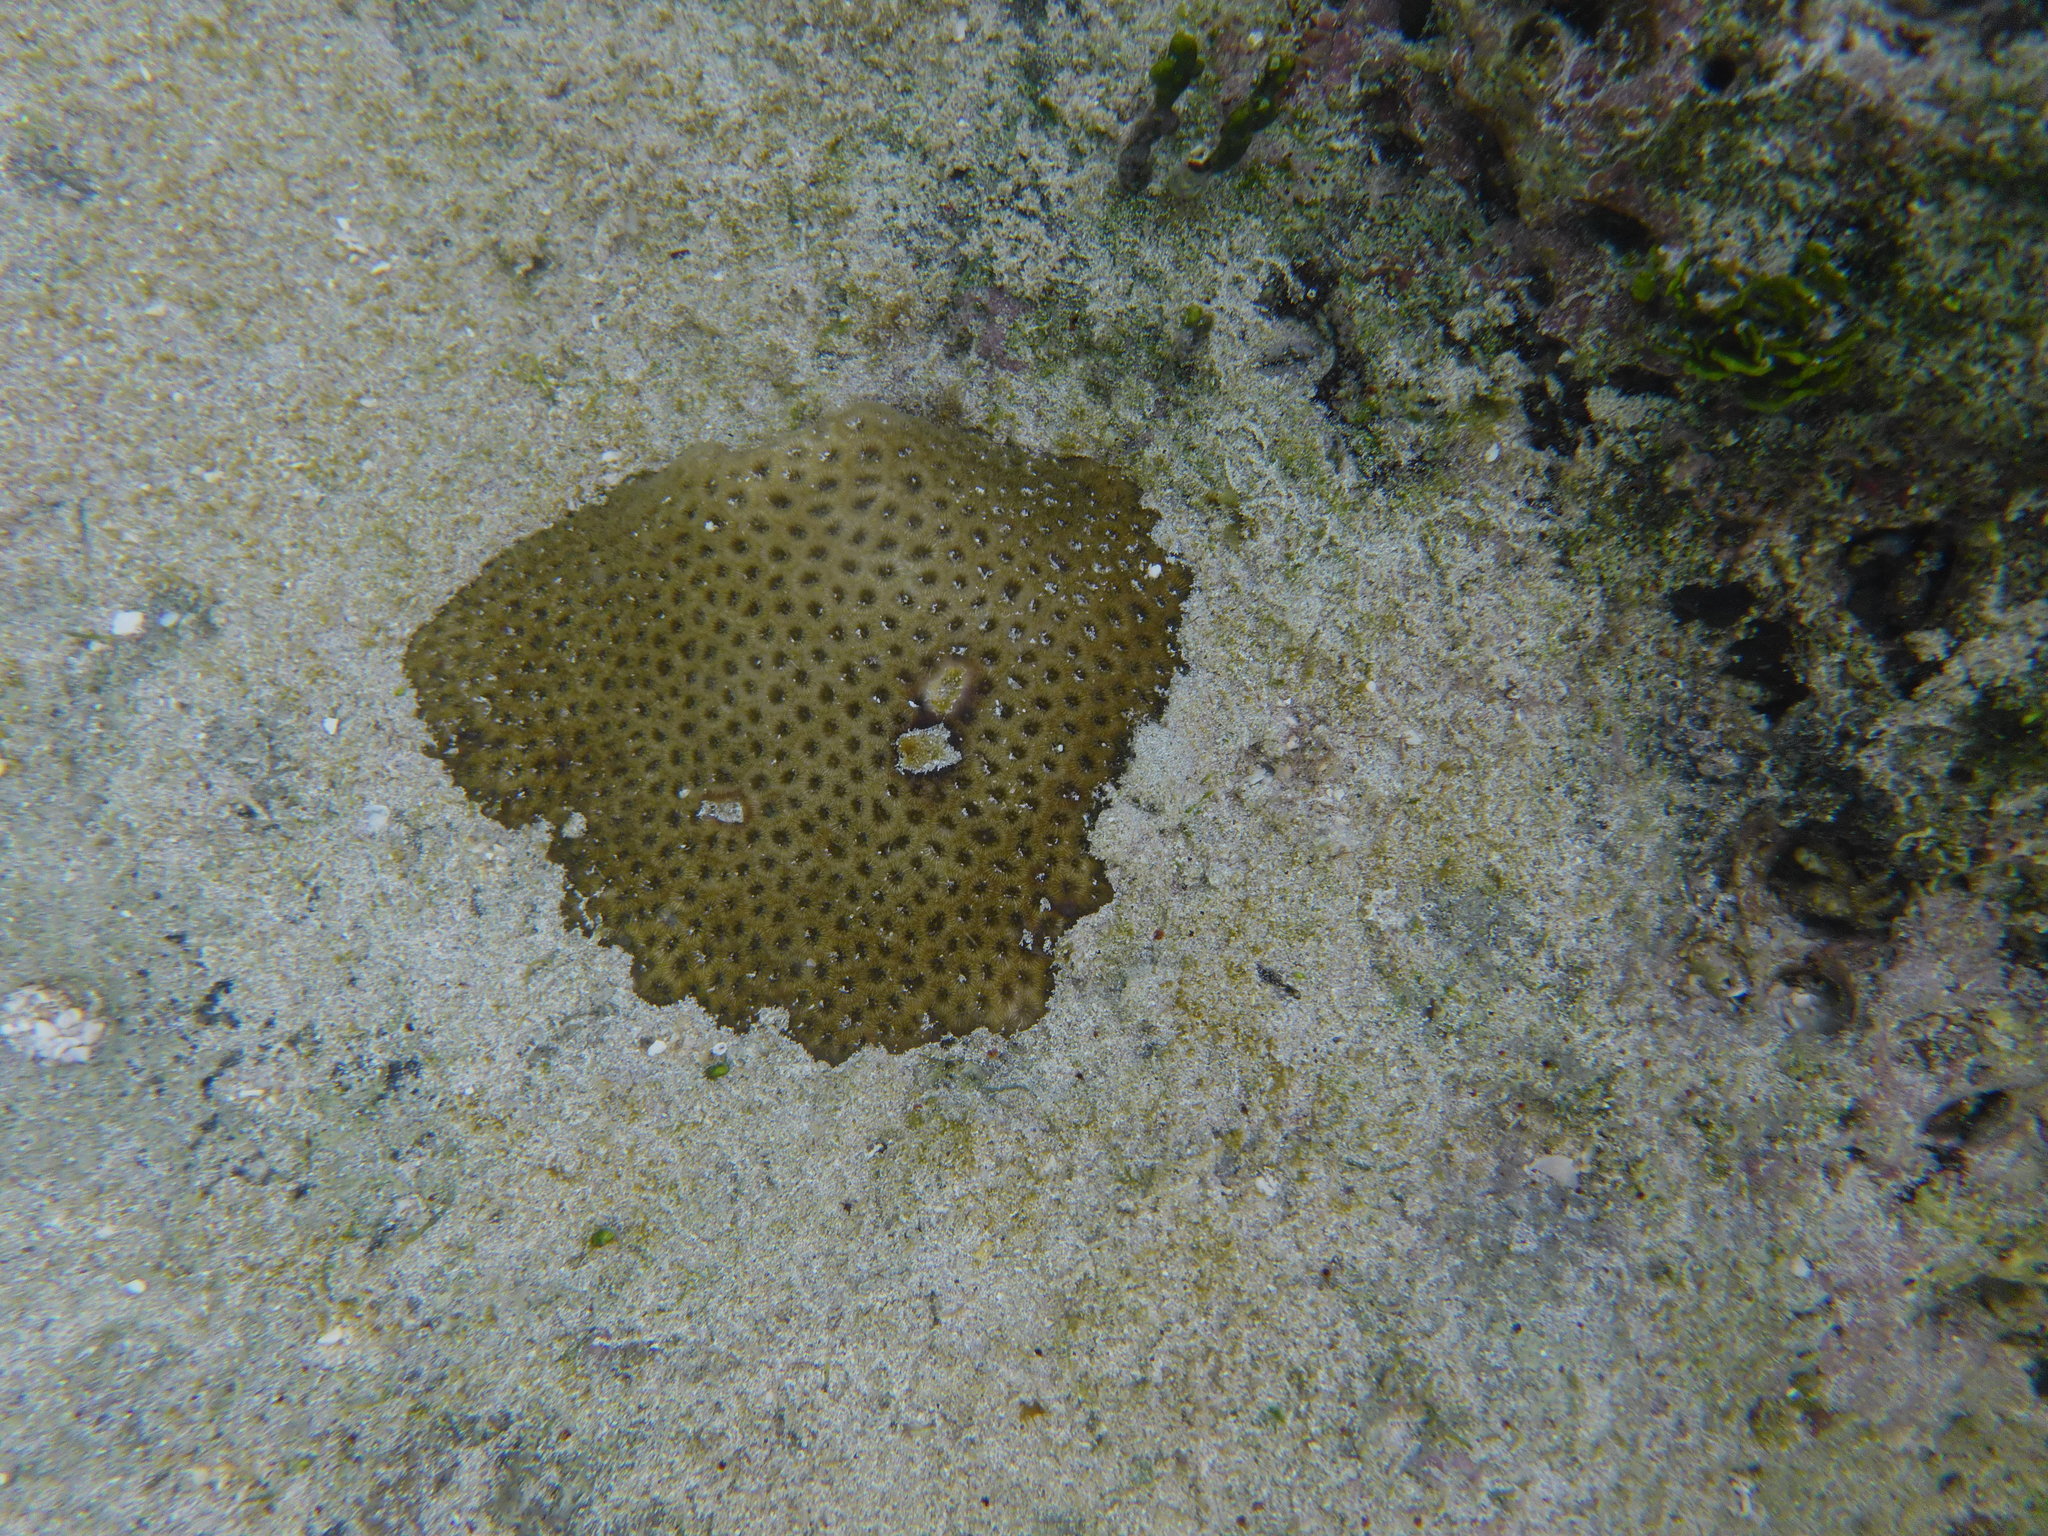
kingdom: Animalia
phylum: Cnidaria
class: Anthozoa
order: Scleractinia
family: Rhizangiidae
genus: Siderastrea
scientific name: Siderastrea radians
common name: Lesser starlet coral
